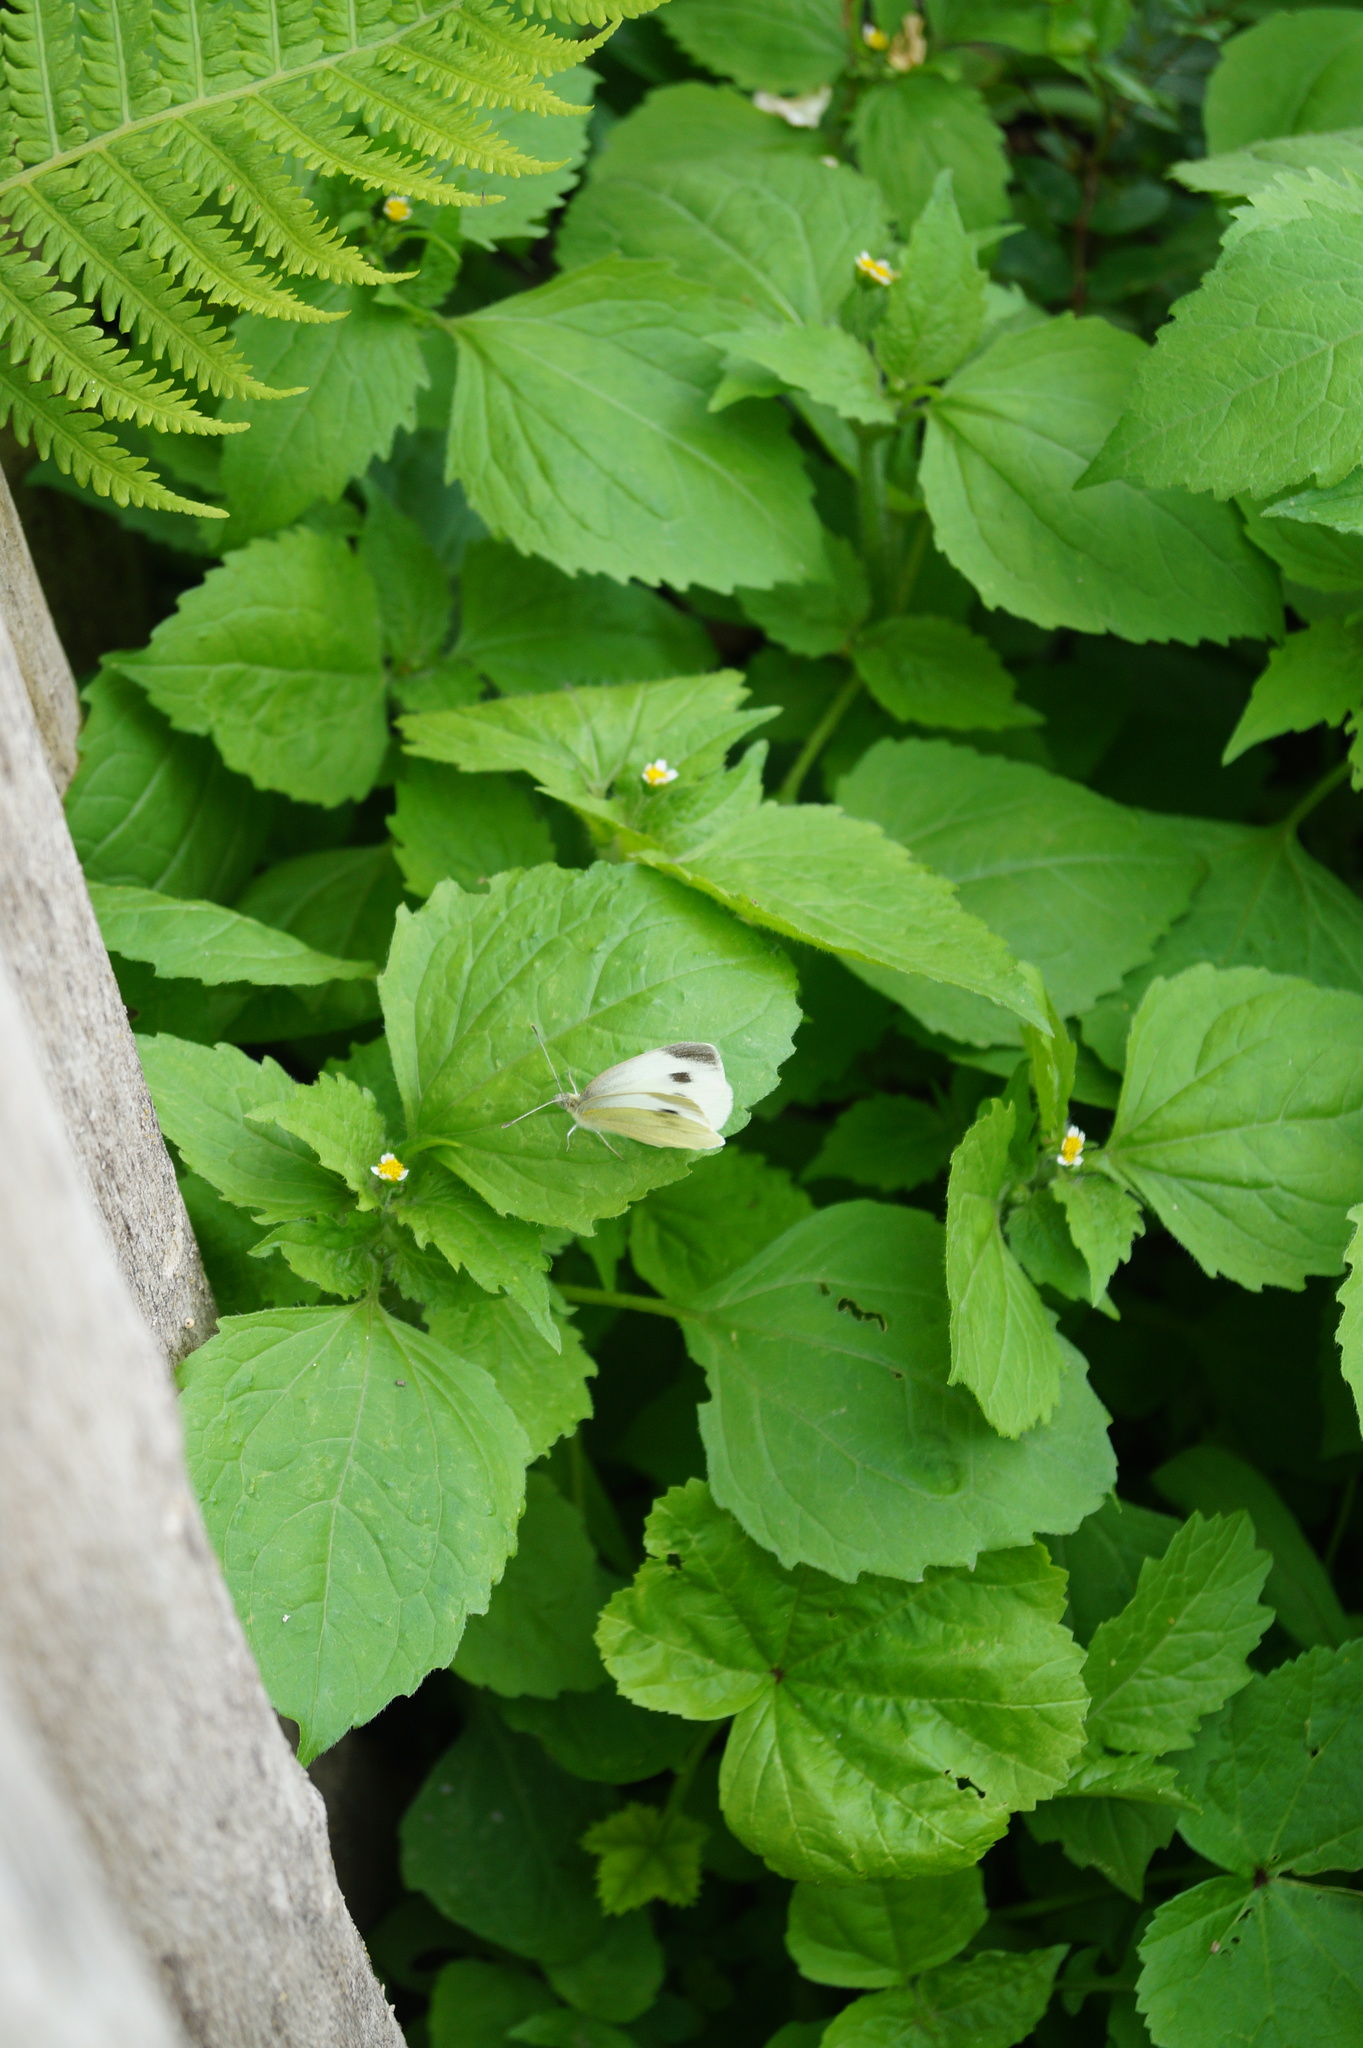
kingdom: Animalia
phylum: Arthropoda
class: Insecta
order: Lepidoptera
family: Pieridae
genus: Pieris
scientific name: Pieris mannii
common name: Southern small white
